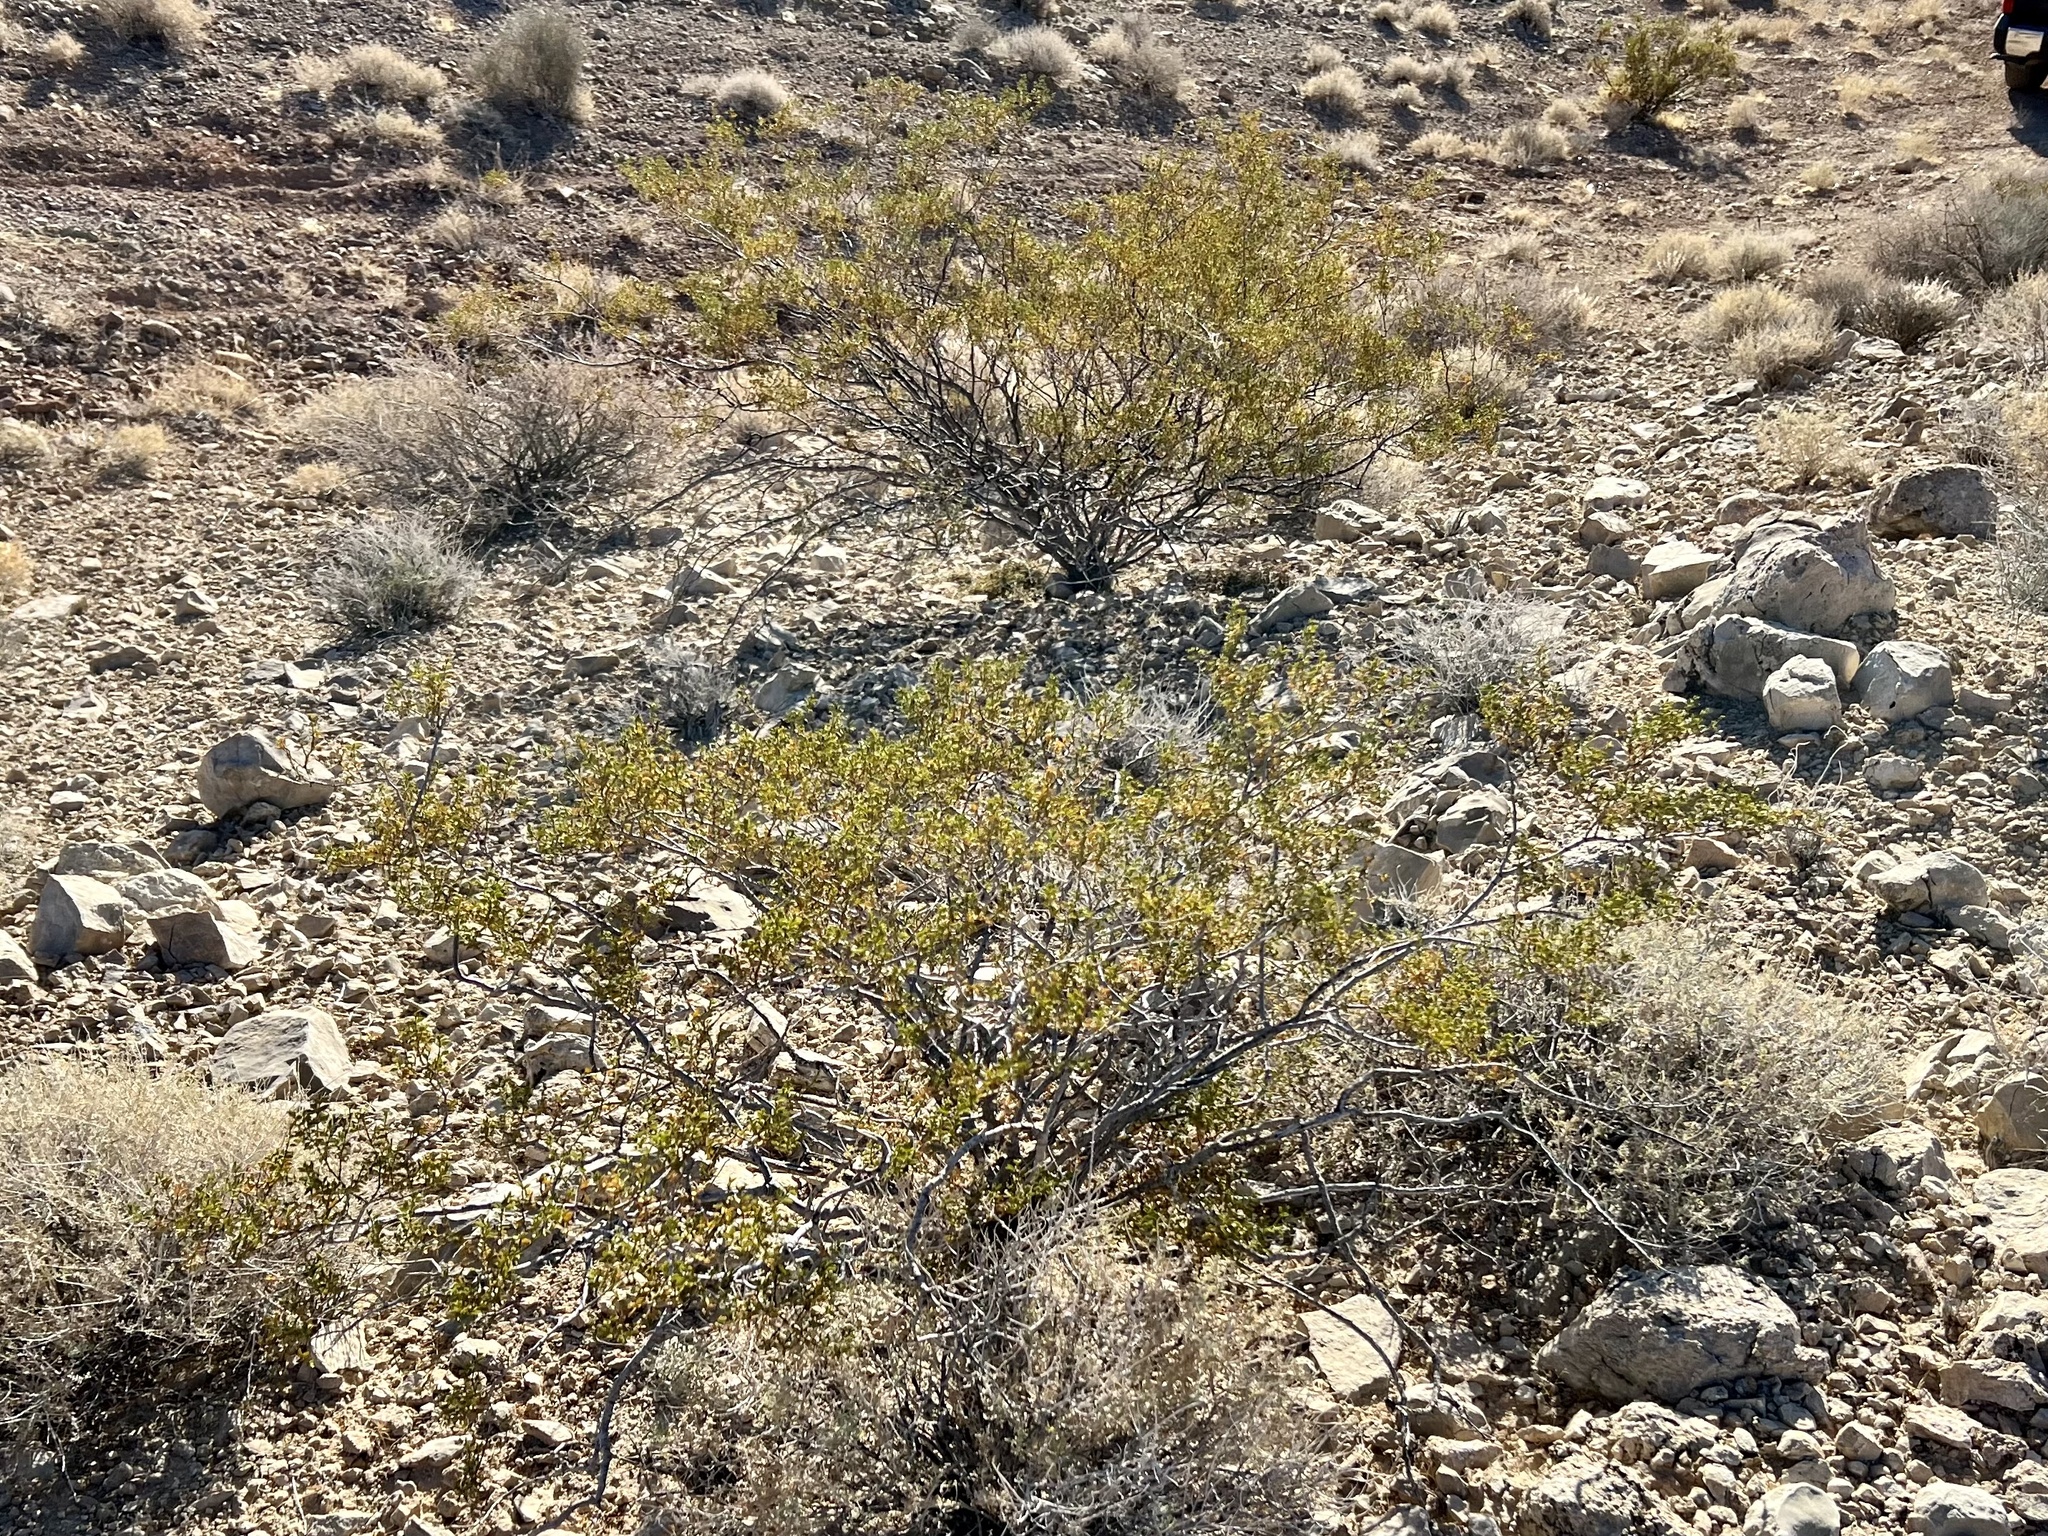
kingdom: Plantae
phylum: Tracheophyta
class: Magnoliopsida
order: Zygophyllales
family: Zygophyllaceae
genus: Larrea
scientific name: Larrea tridentata
